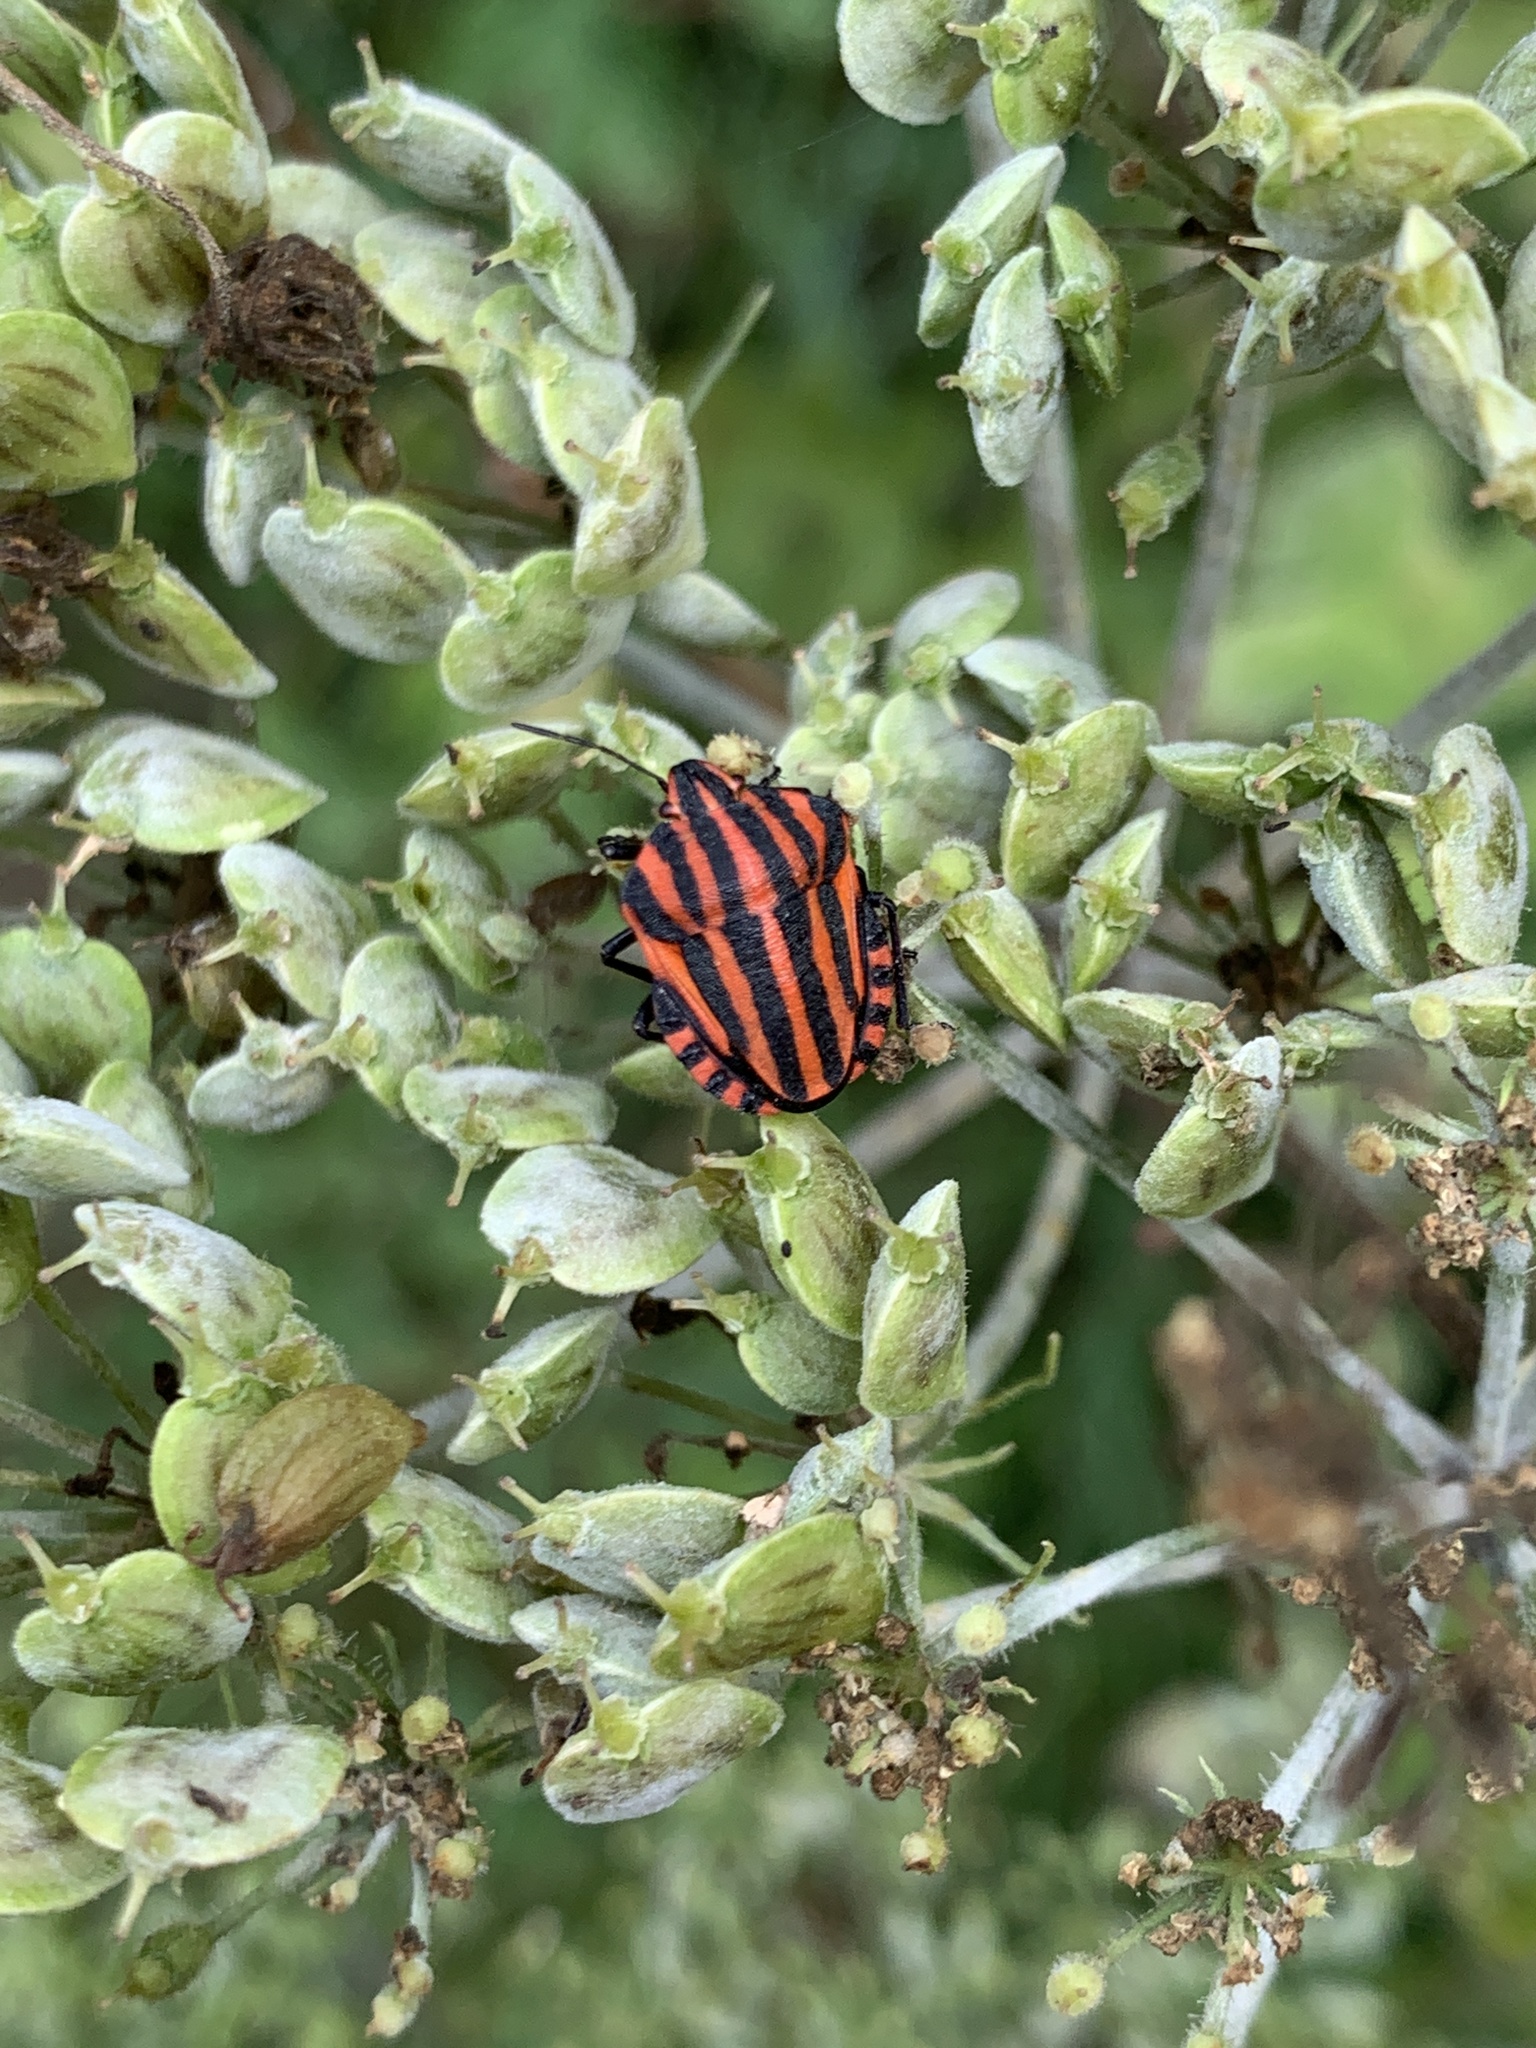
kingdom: Animalia
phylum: Arthropoda
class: Insecta
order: Hemiptera
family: Pentatomidae
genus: Graphosoma
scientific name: Graphosoma italicum
